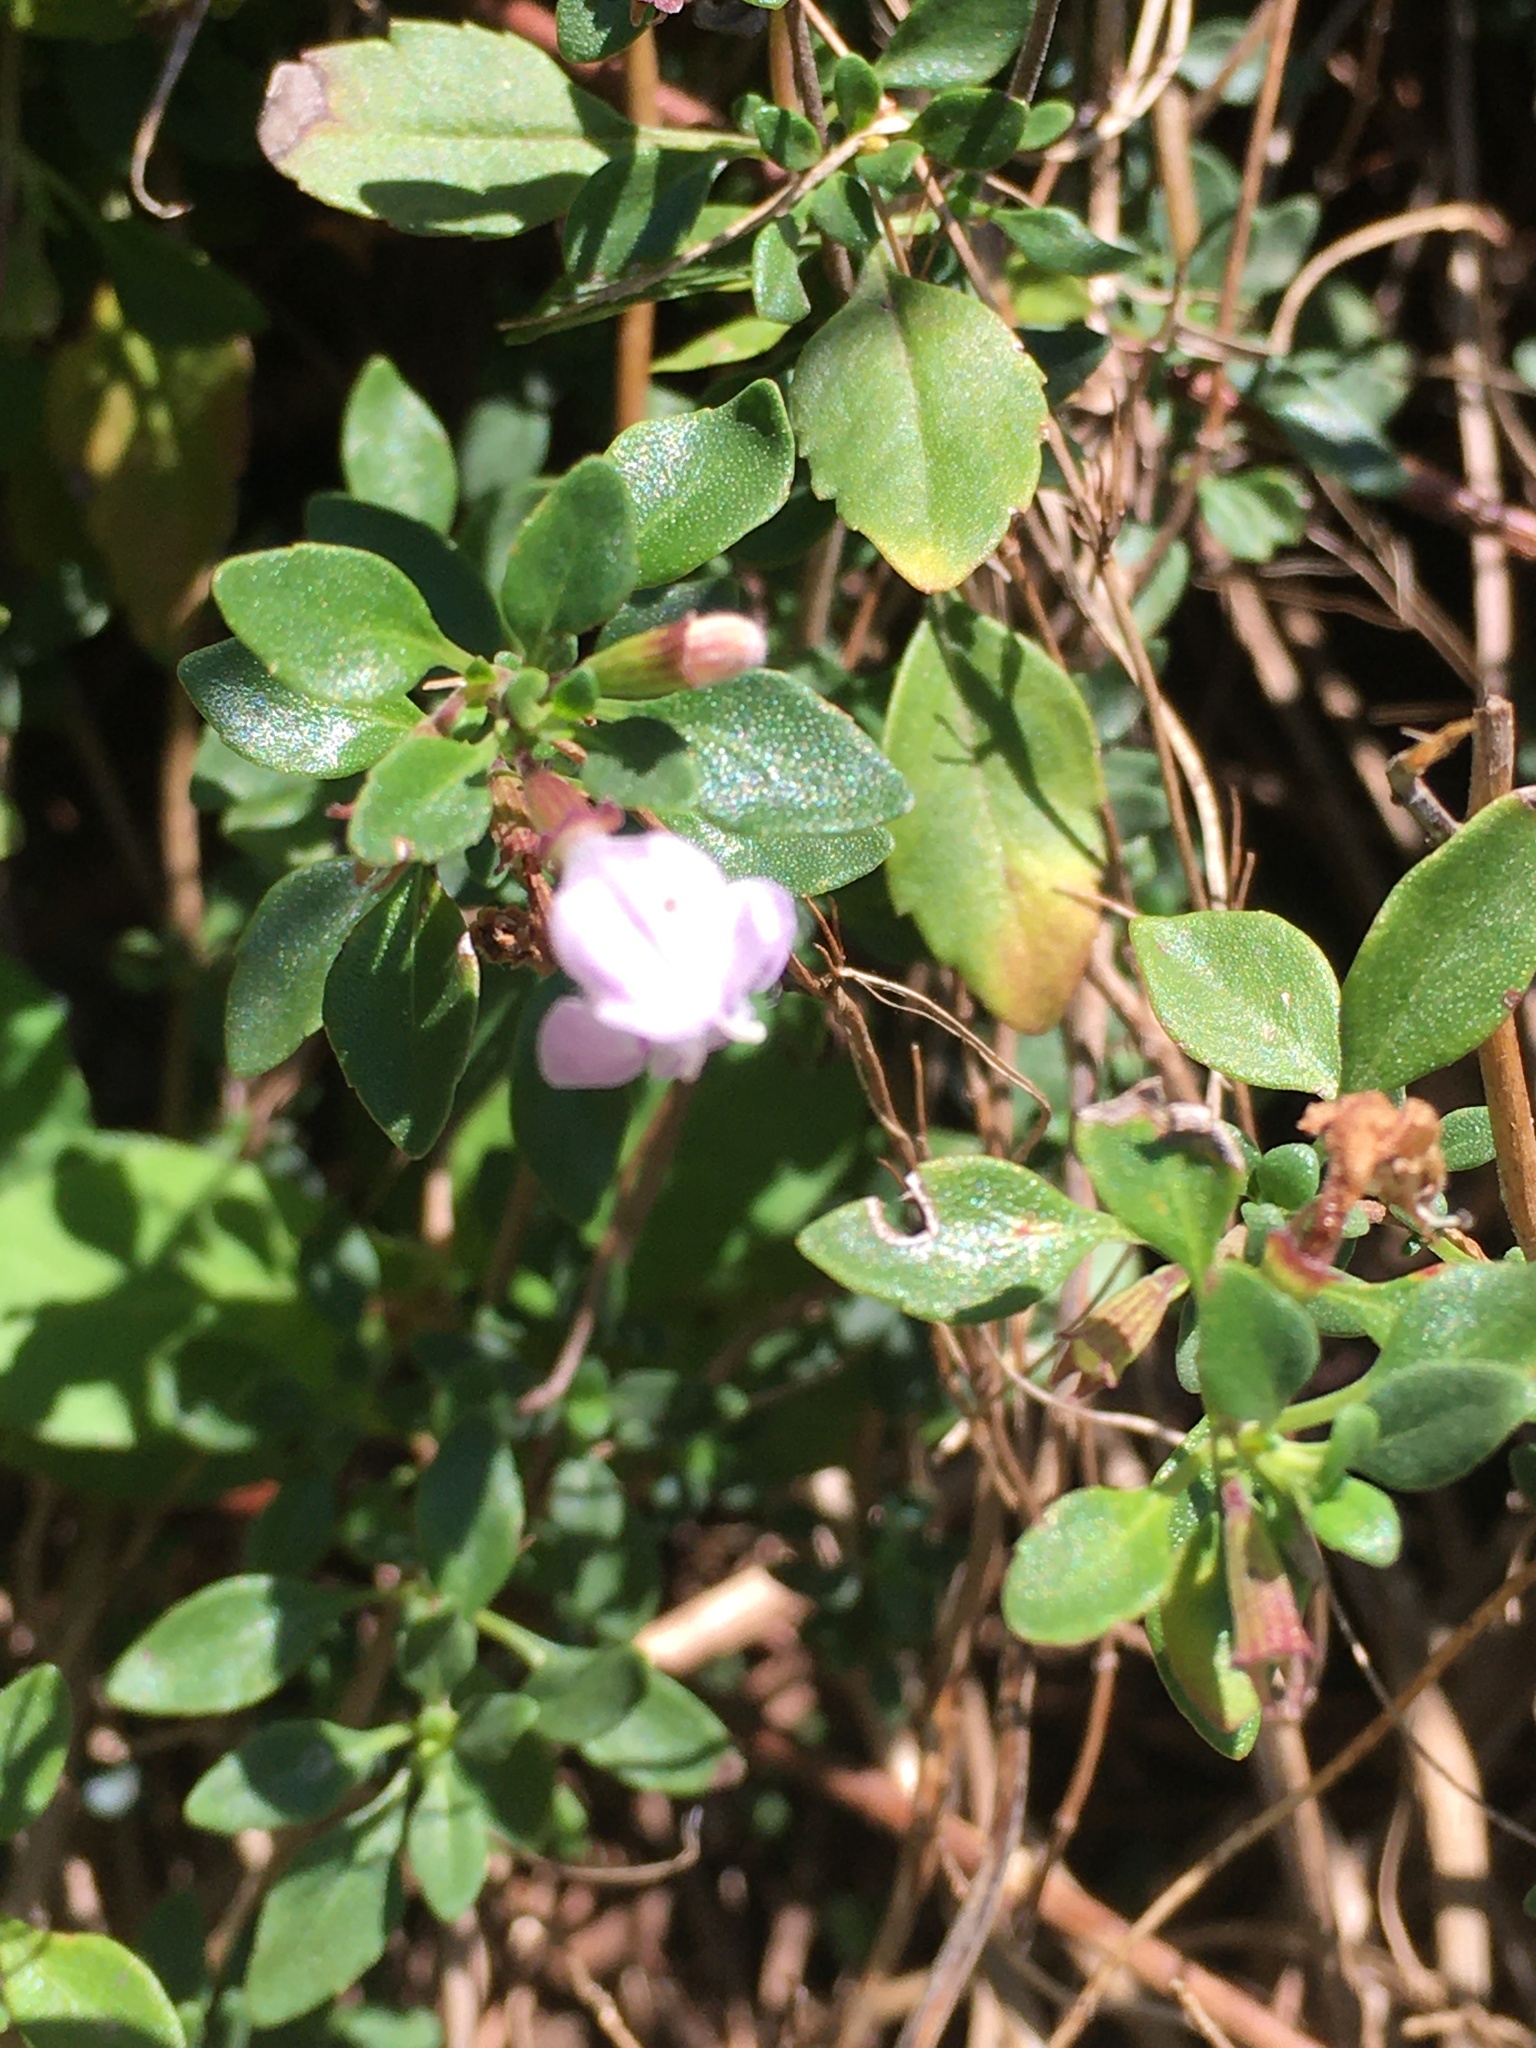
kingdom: Plantae
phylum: Tracheophyta
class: Magnoliopsida
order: Lamiales
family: Lamiaceae
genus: Clinopodium
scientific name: Clinopodium carolinianum
